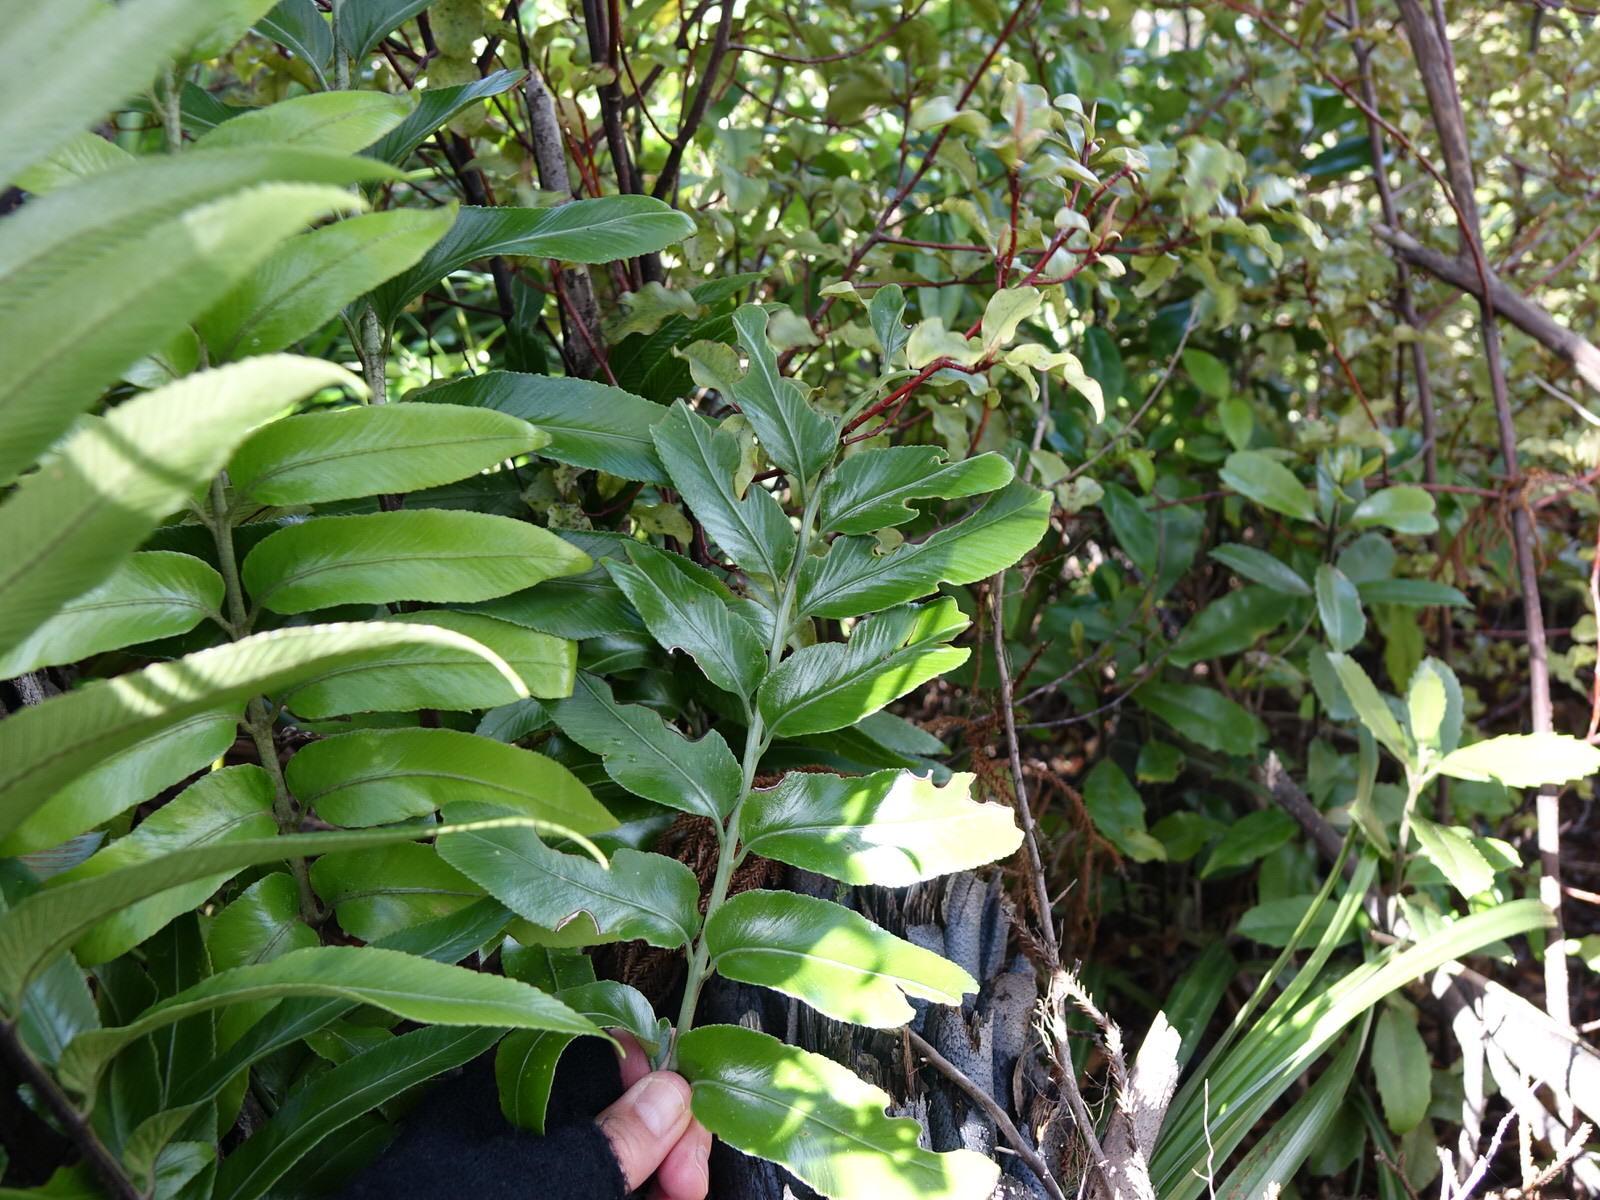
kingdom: Plantae
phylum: Tracheophyta
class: Polypodiopsida
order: Polypodiales
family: Aspleniaceae
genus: Asplenium
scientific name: Asplenium oblongifolium
